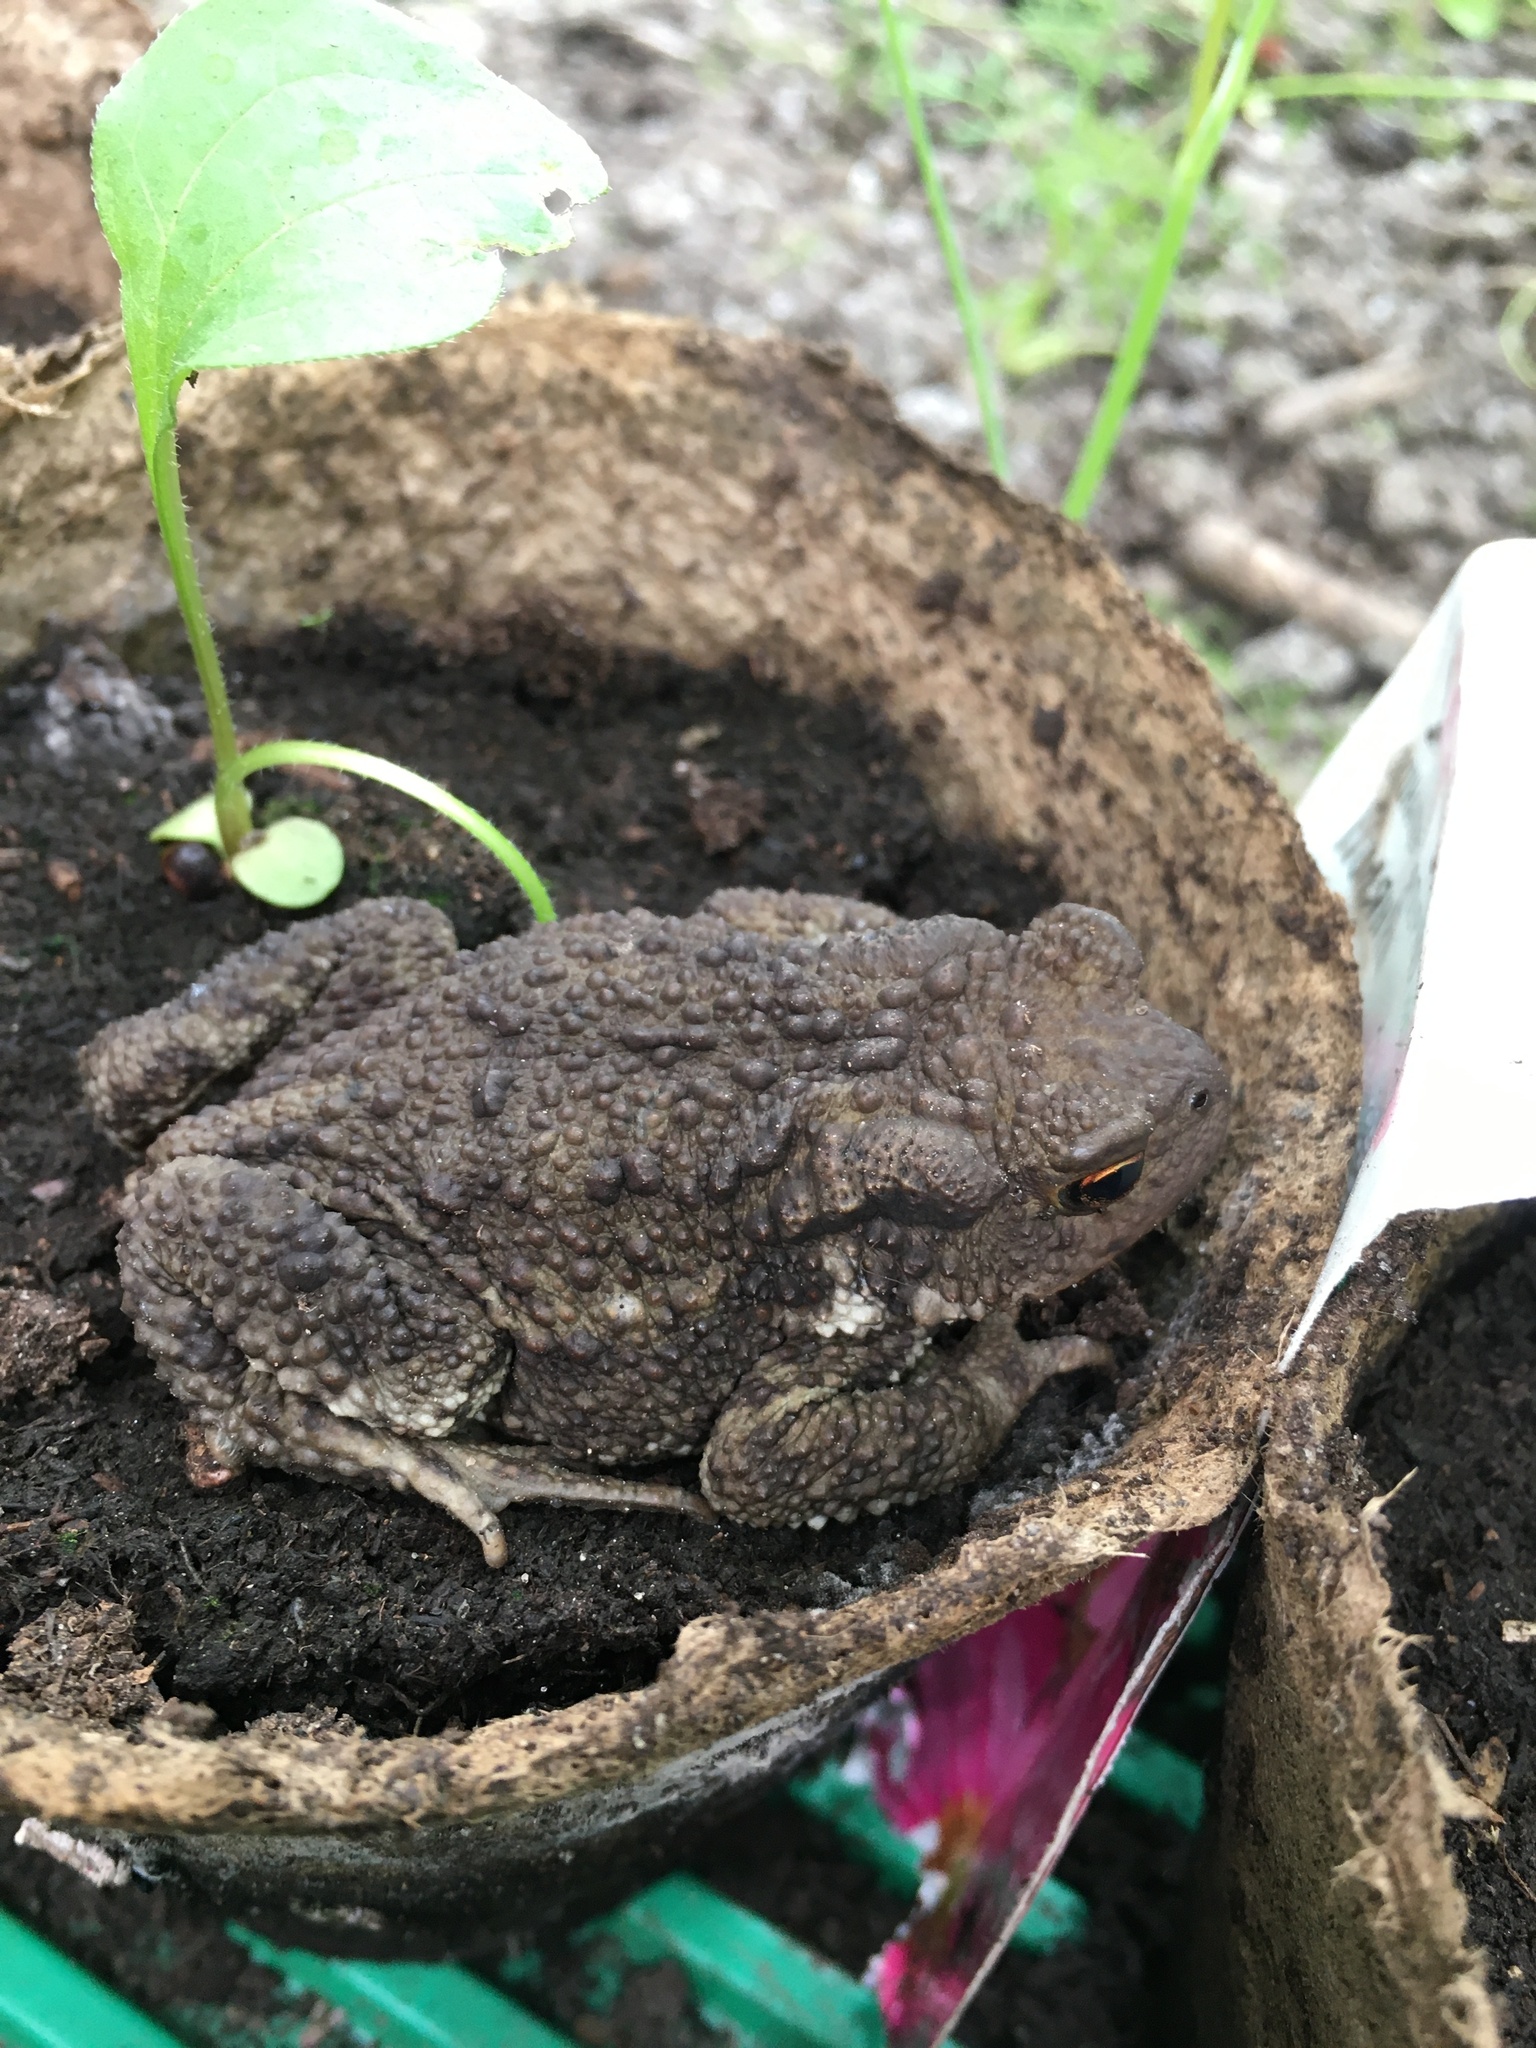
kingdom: Animalia
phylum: Chordata
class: Amphibia
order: Anura
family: Bufonidae
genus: Bufo
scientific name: Bufo bufo
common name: Common toad
